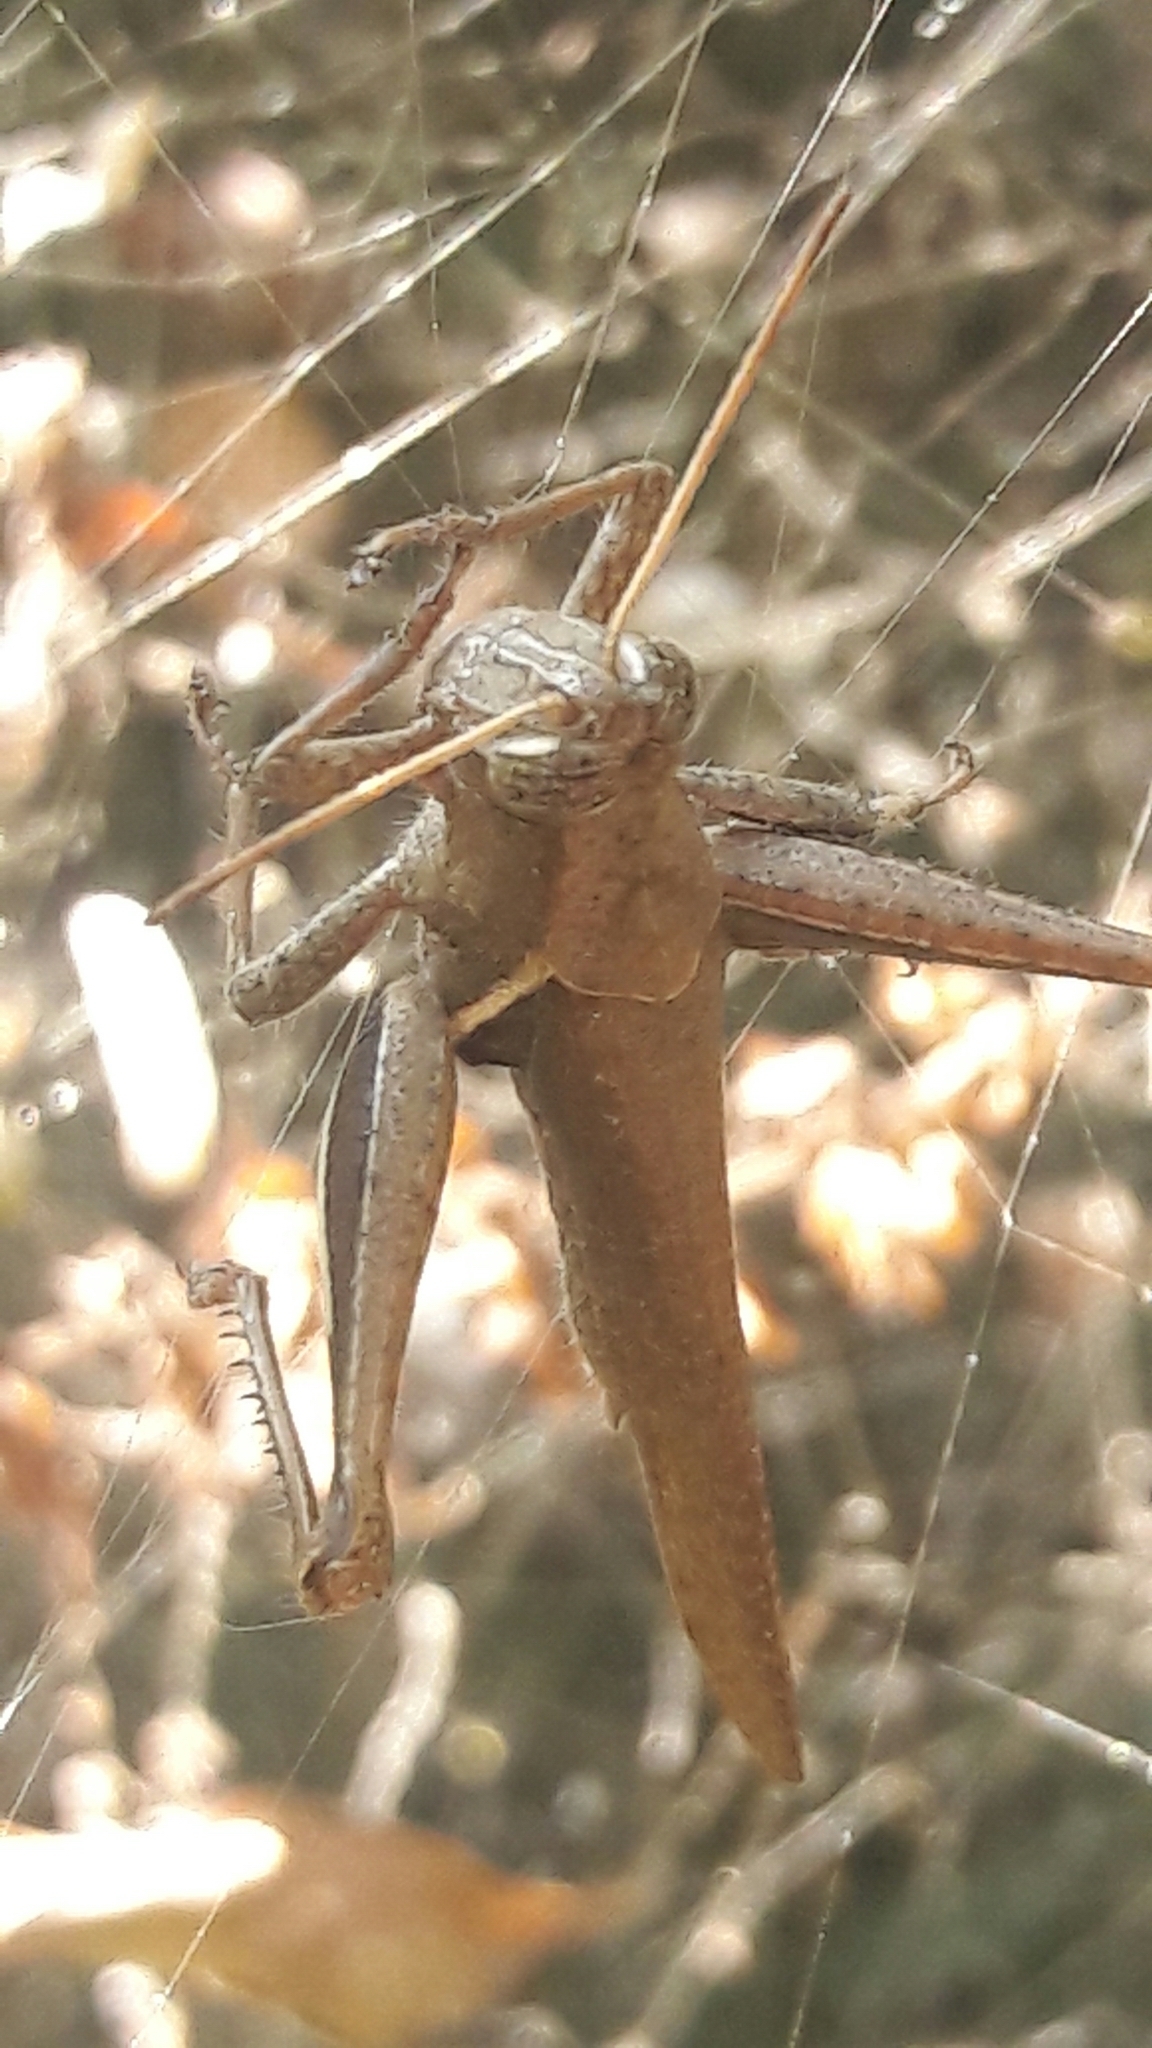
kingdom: Animalia
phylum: Arthropoda
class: Insecta
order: Orthoptera
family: Acrididae
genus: Abracris
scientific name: Abracris flavolineata
